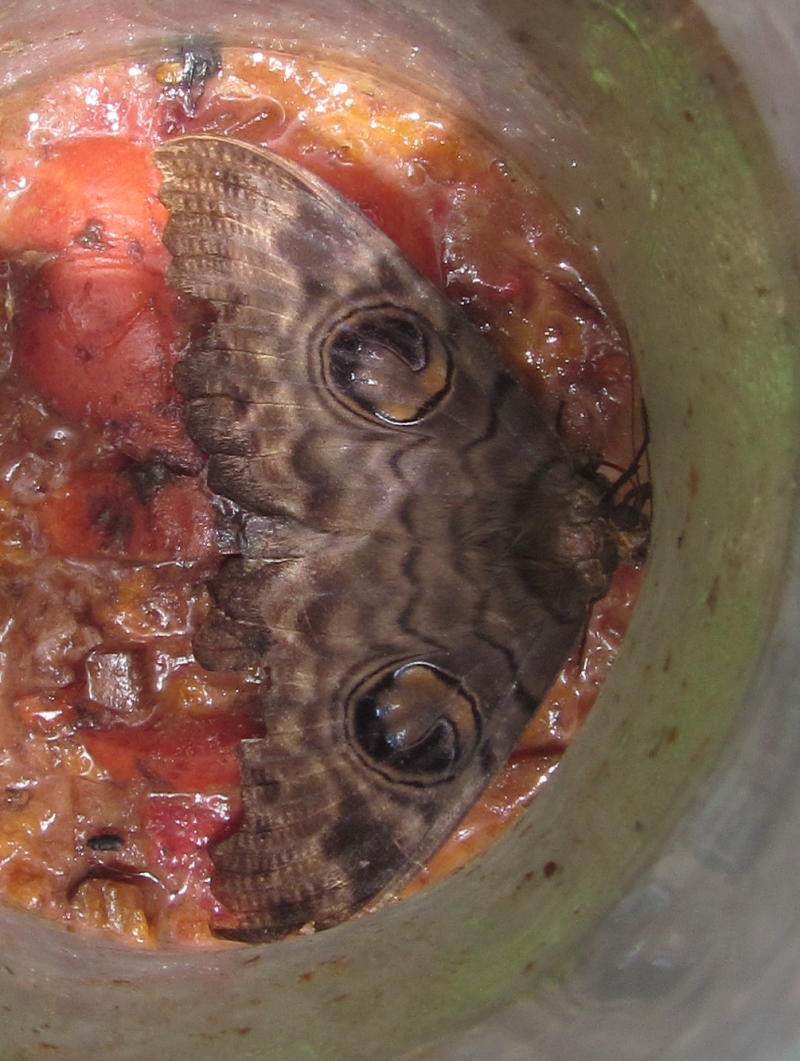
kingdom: Animalia
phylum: Arthropoda
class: Insecta
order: Lepidoptera
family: Erebidae
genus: Erebus
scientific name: Erebus walkeri
